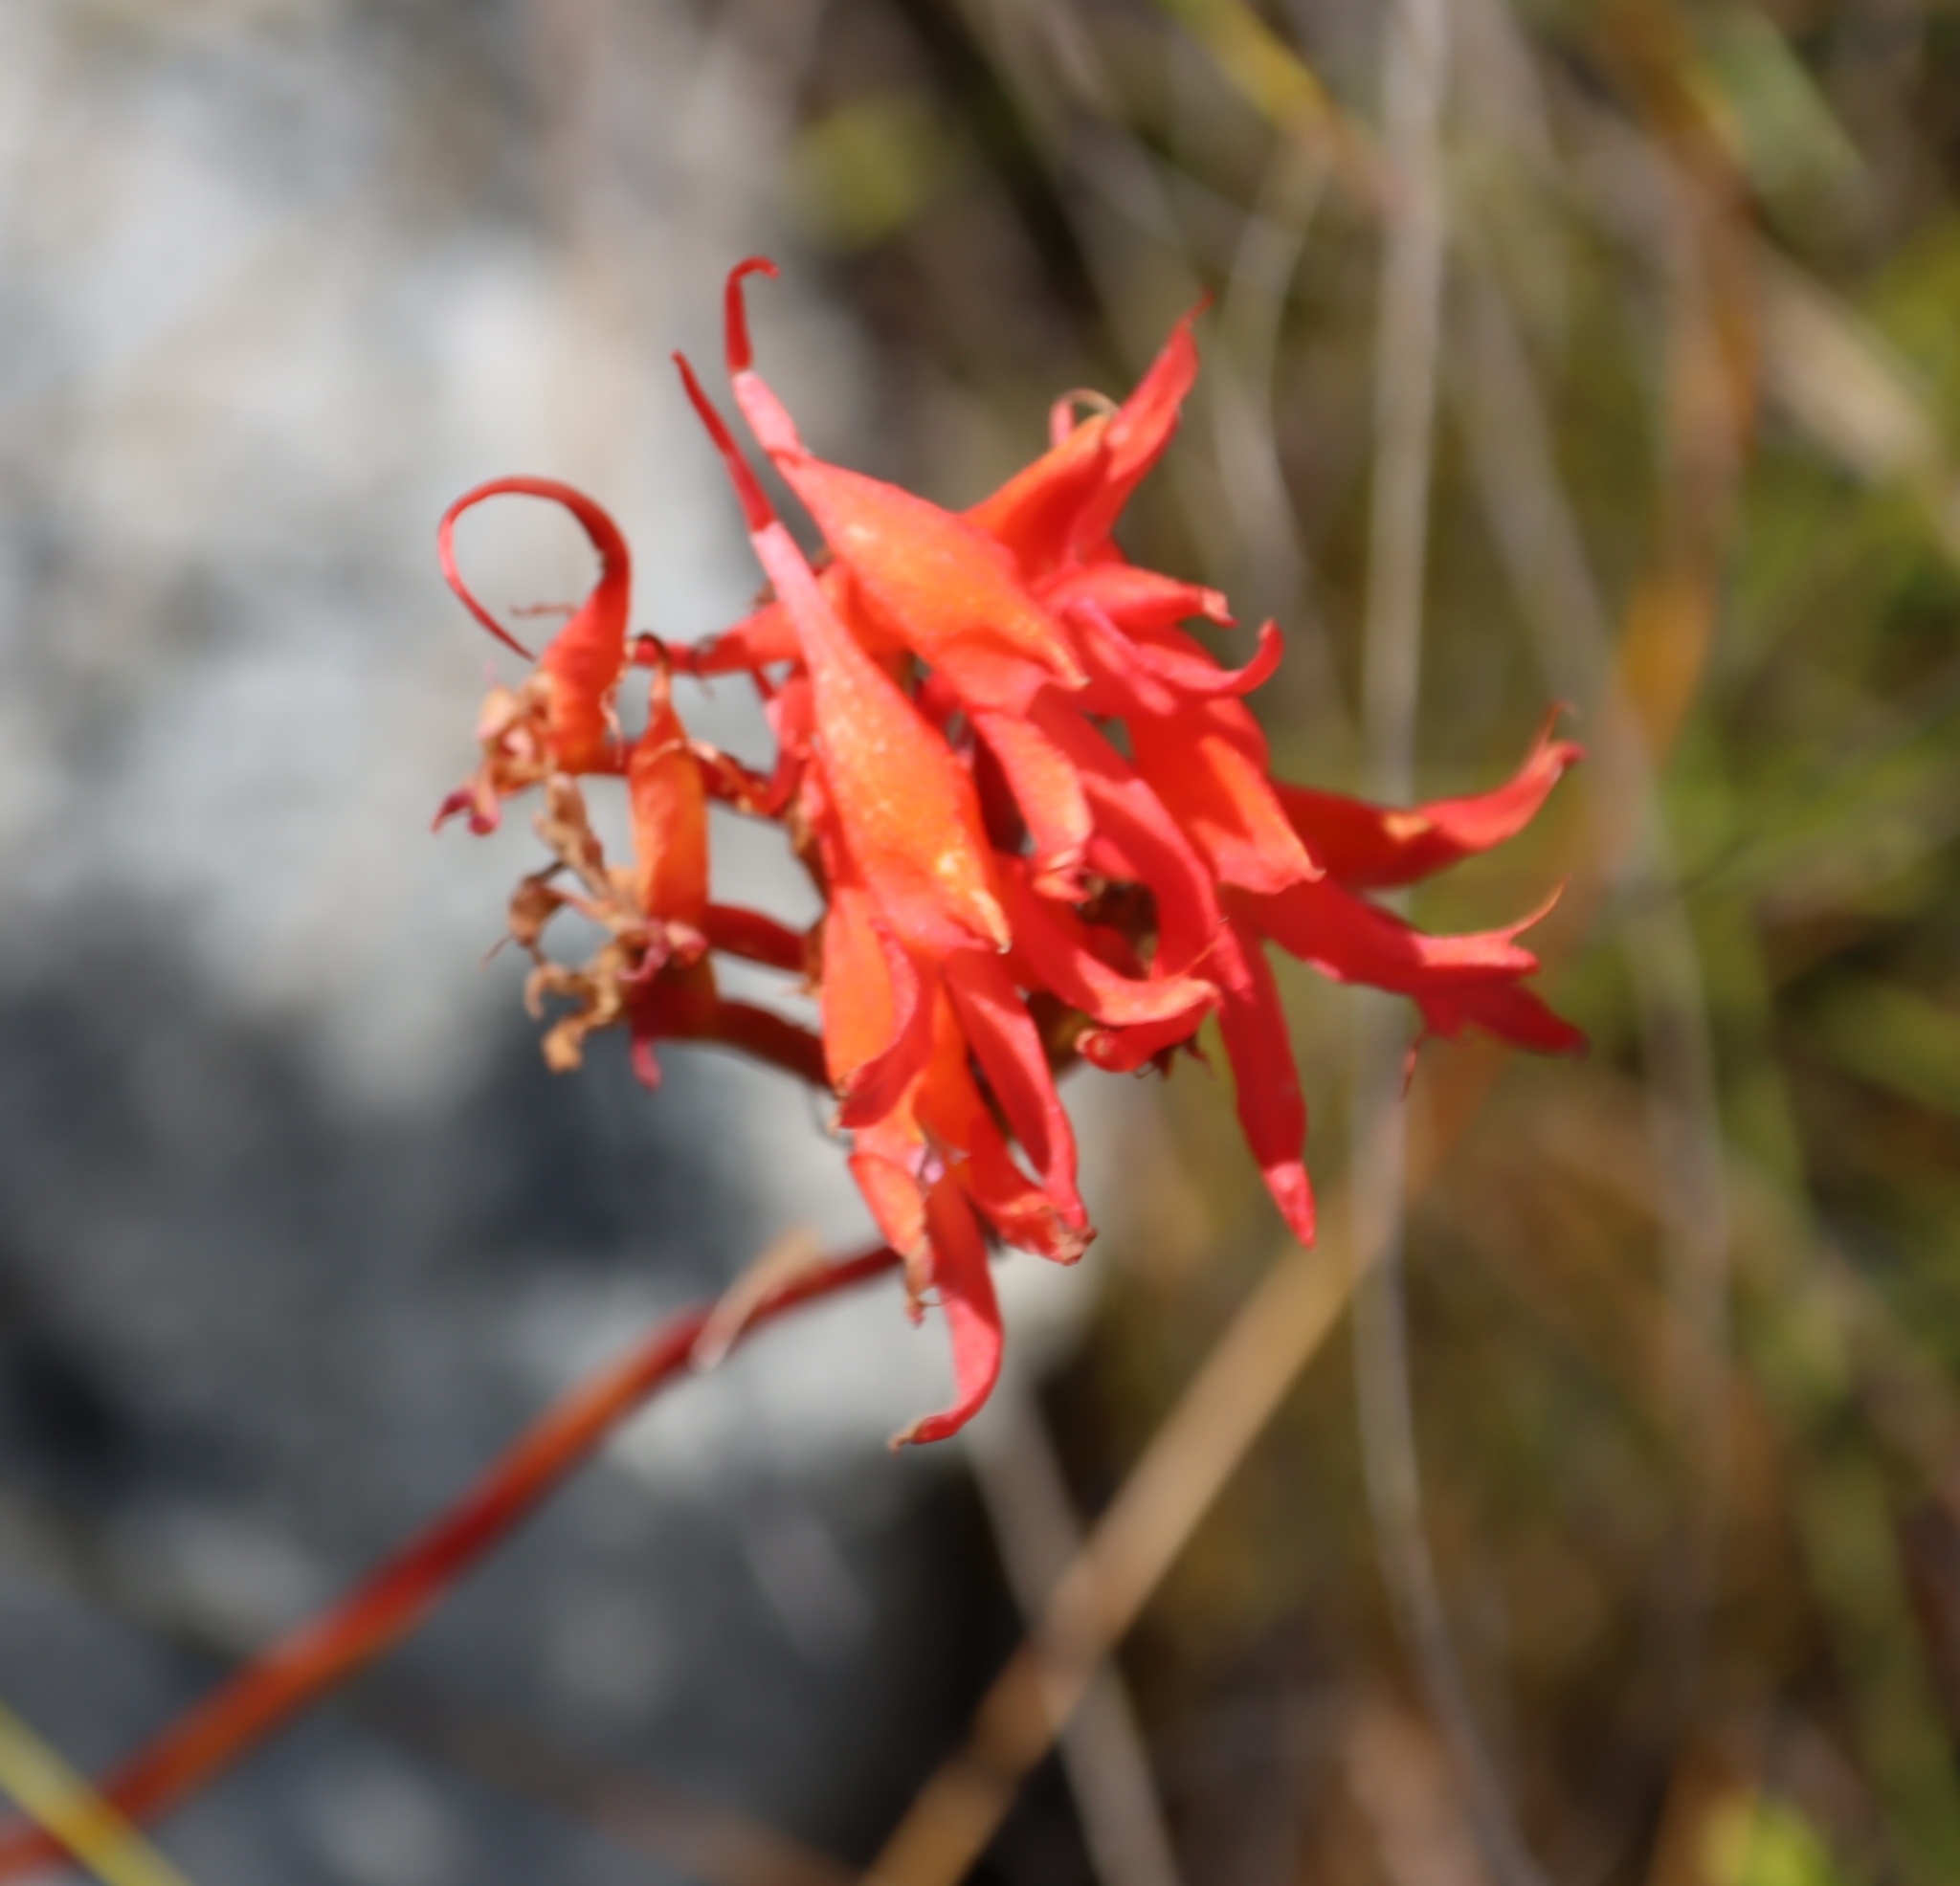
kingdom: Plantae
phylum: Tracheophyta
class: Liliopsida
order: Asparagales
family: Orchidaceae
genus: Disa
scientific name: Disa ferruginea
